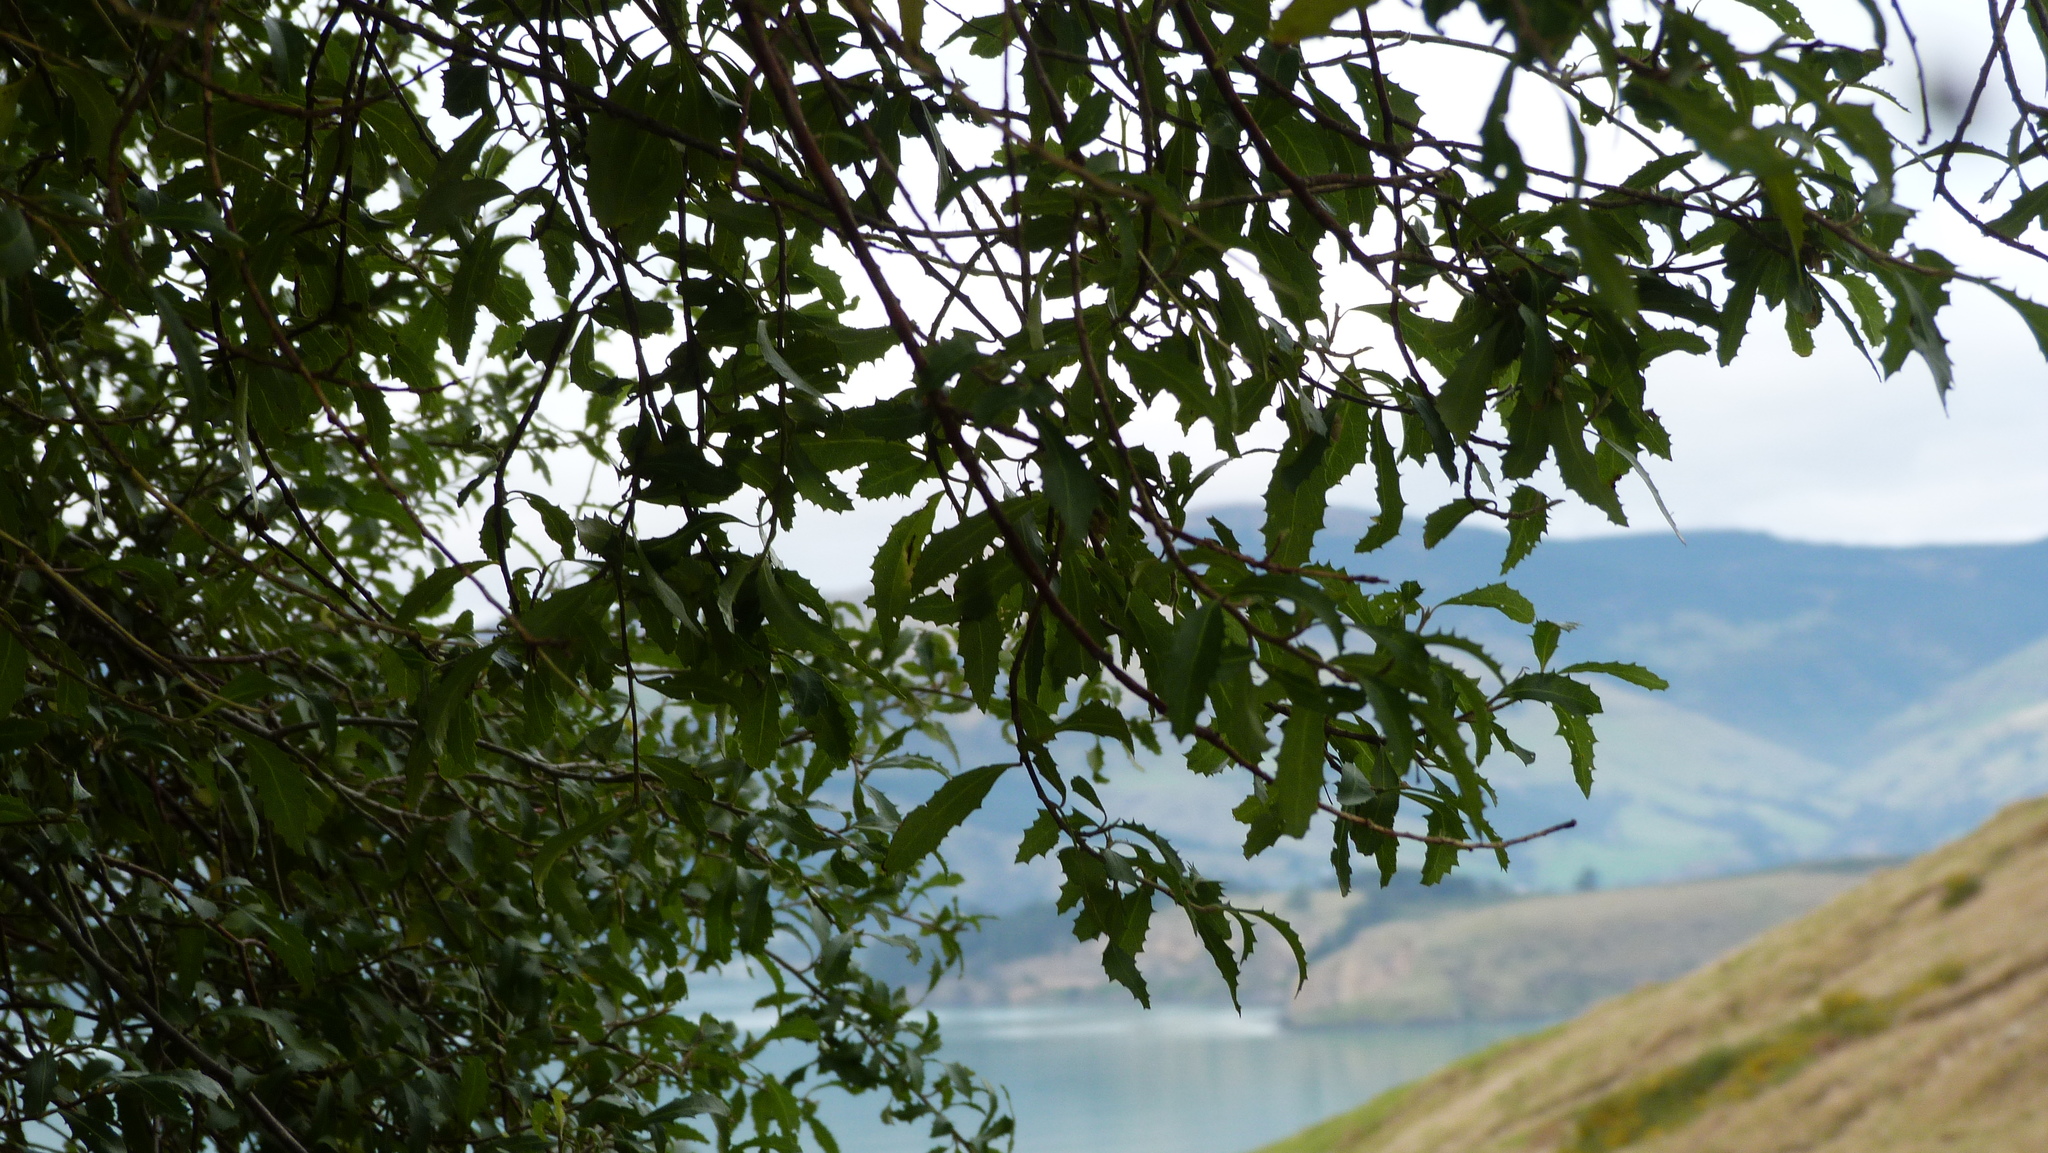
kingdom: Plantae
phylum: Tracheophyta
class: Magnoliopsida
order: Malvales
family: Malvaceae
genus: Hoheria
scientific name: Hoheria angustifolia
